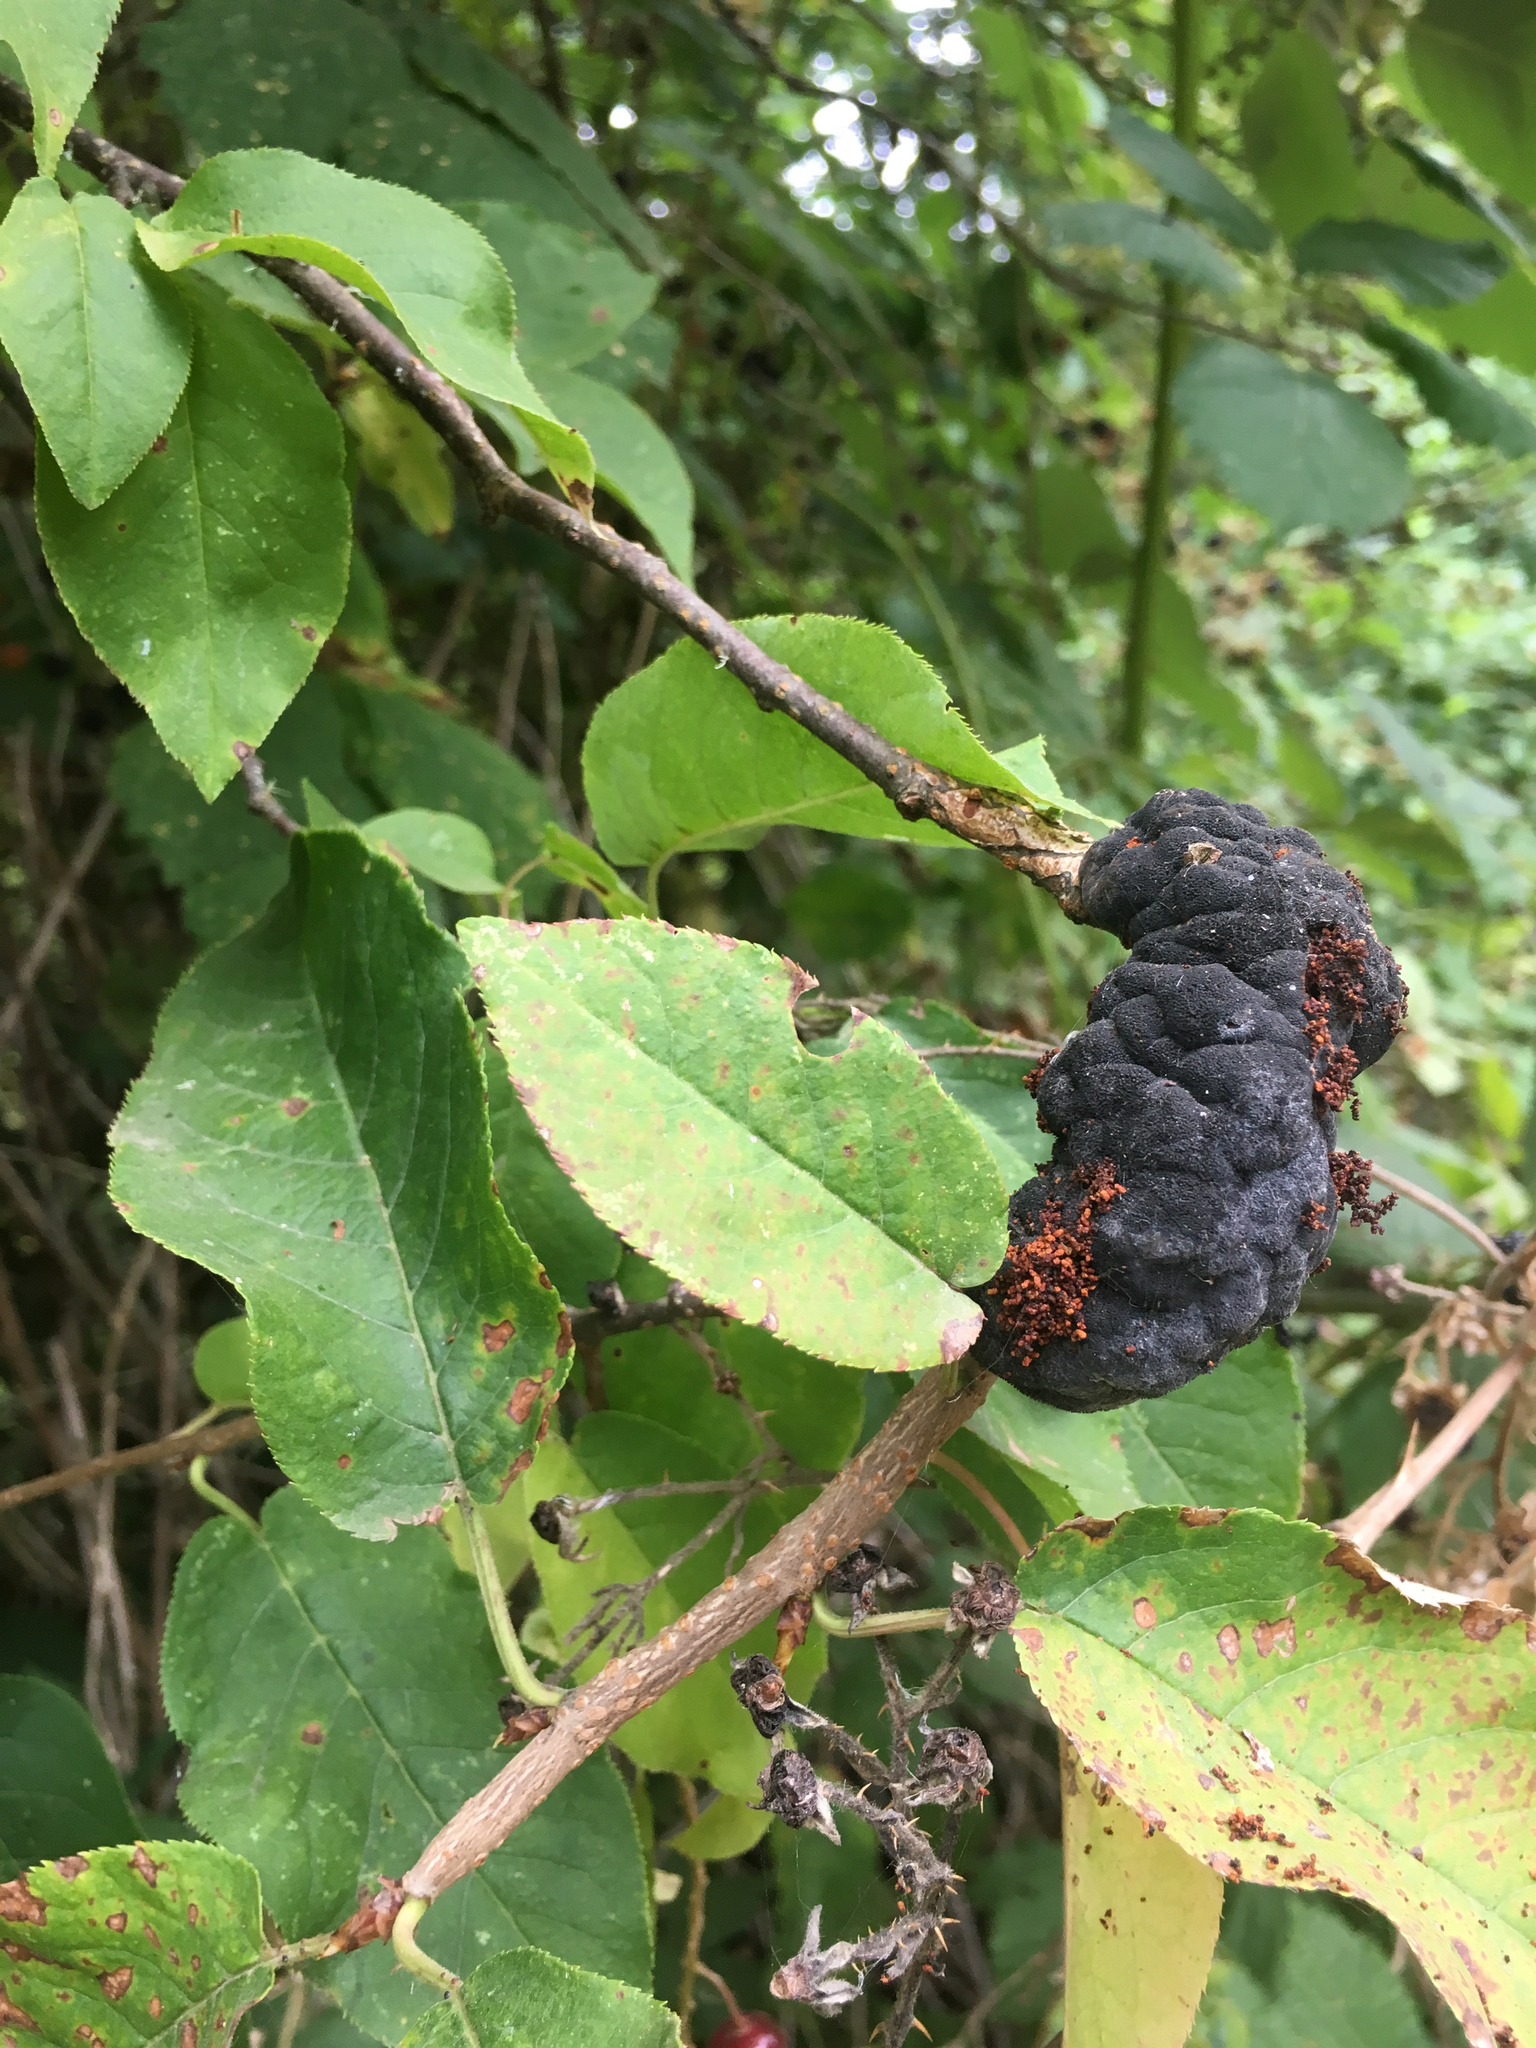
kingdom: Fungi
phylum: Ascomycota
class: Dothideomycetes
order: Venturiales
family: Venturiaceae
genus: Apiosporina
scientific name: Apiosporina morbosa
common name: Black knot
